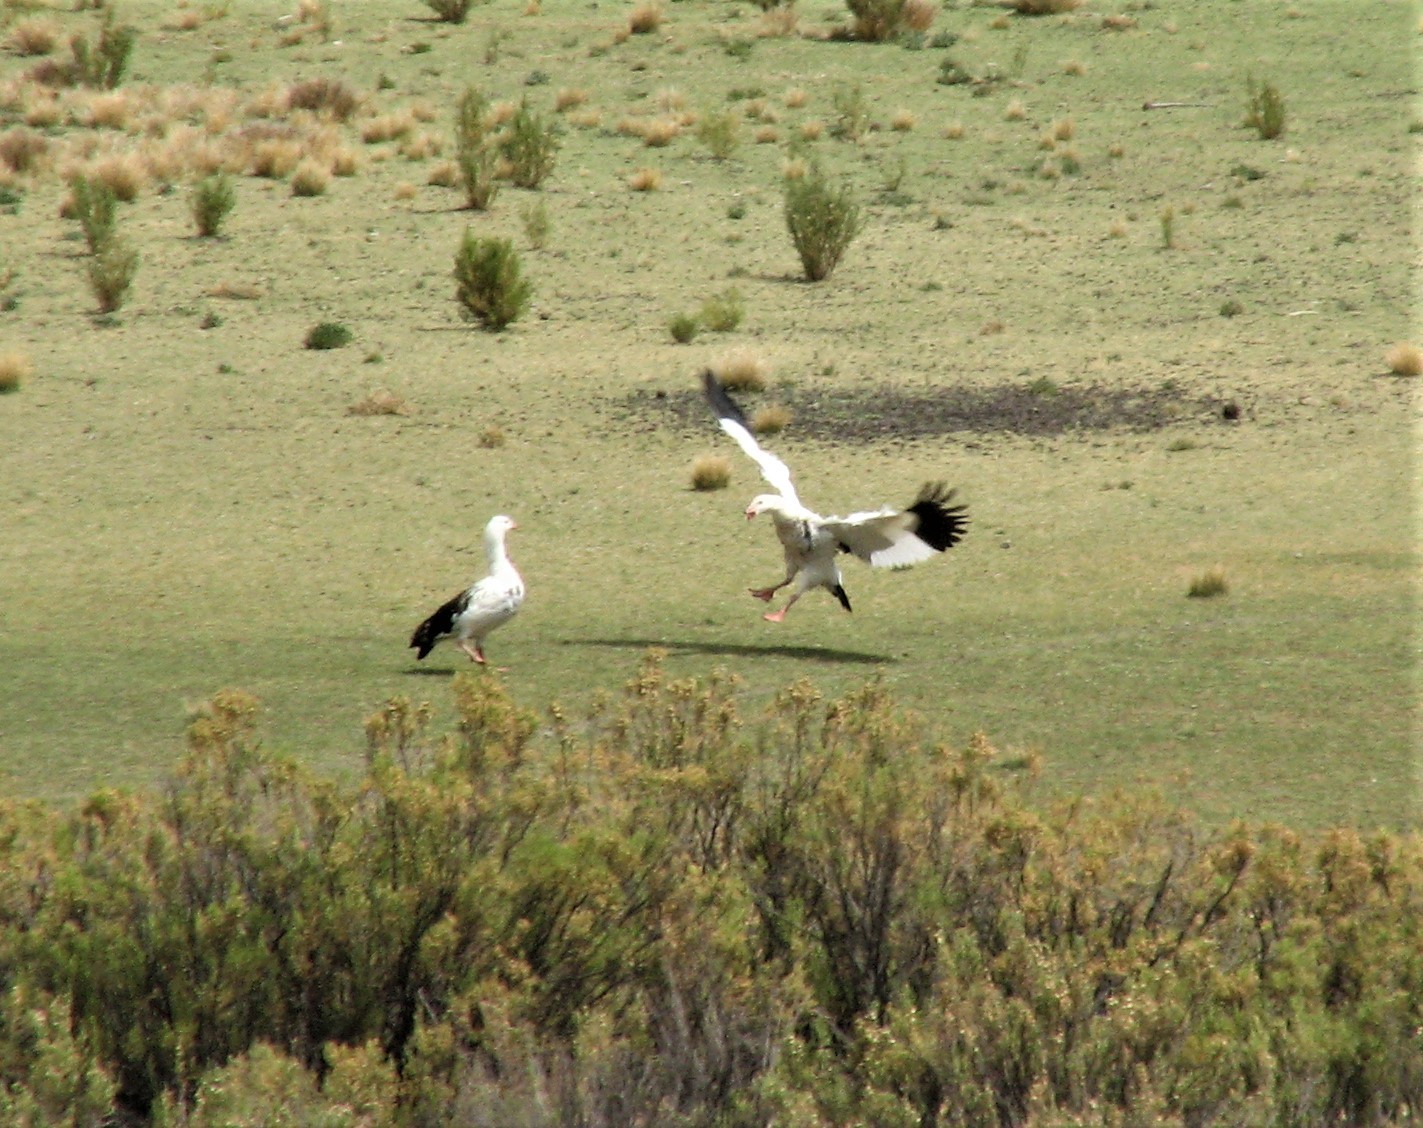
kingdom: Animalia
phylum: Chordata
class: Aves
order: Anseriformes
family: Anatidae
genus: Chloephaga
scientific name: Chloephaga melanoptera
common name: Andean goose
